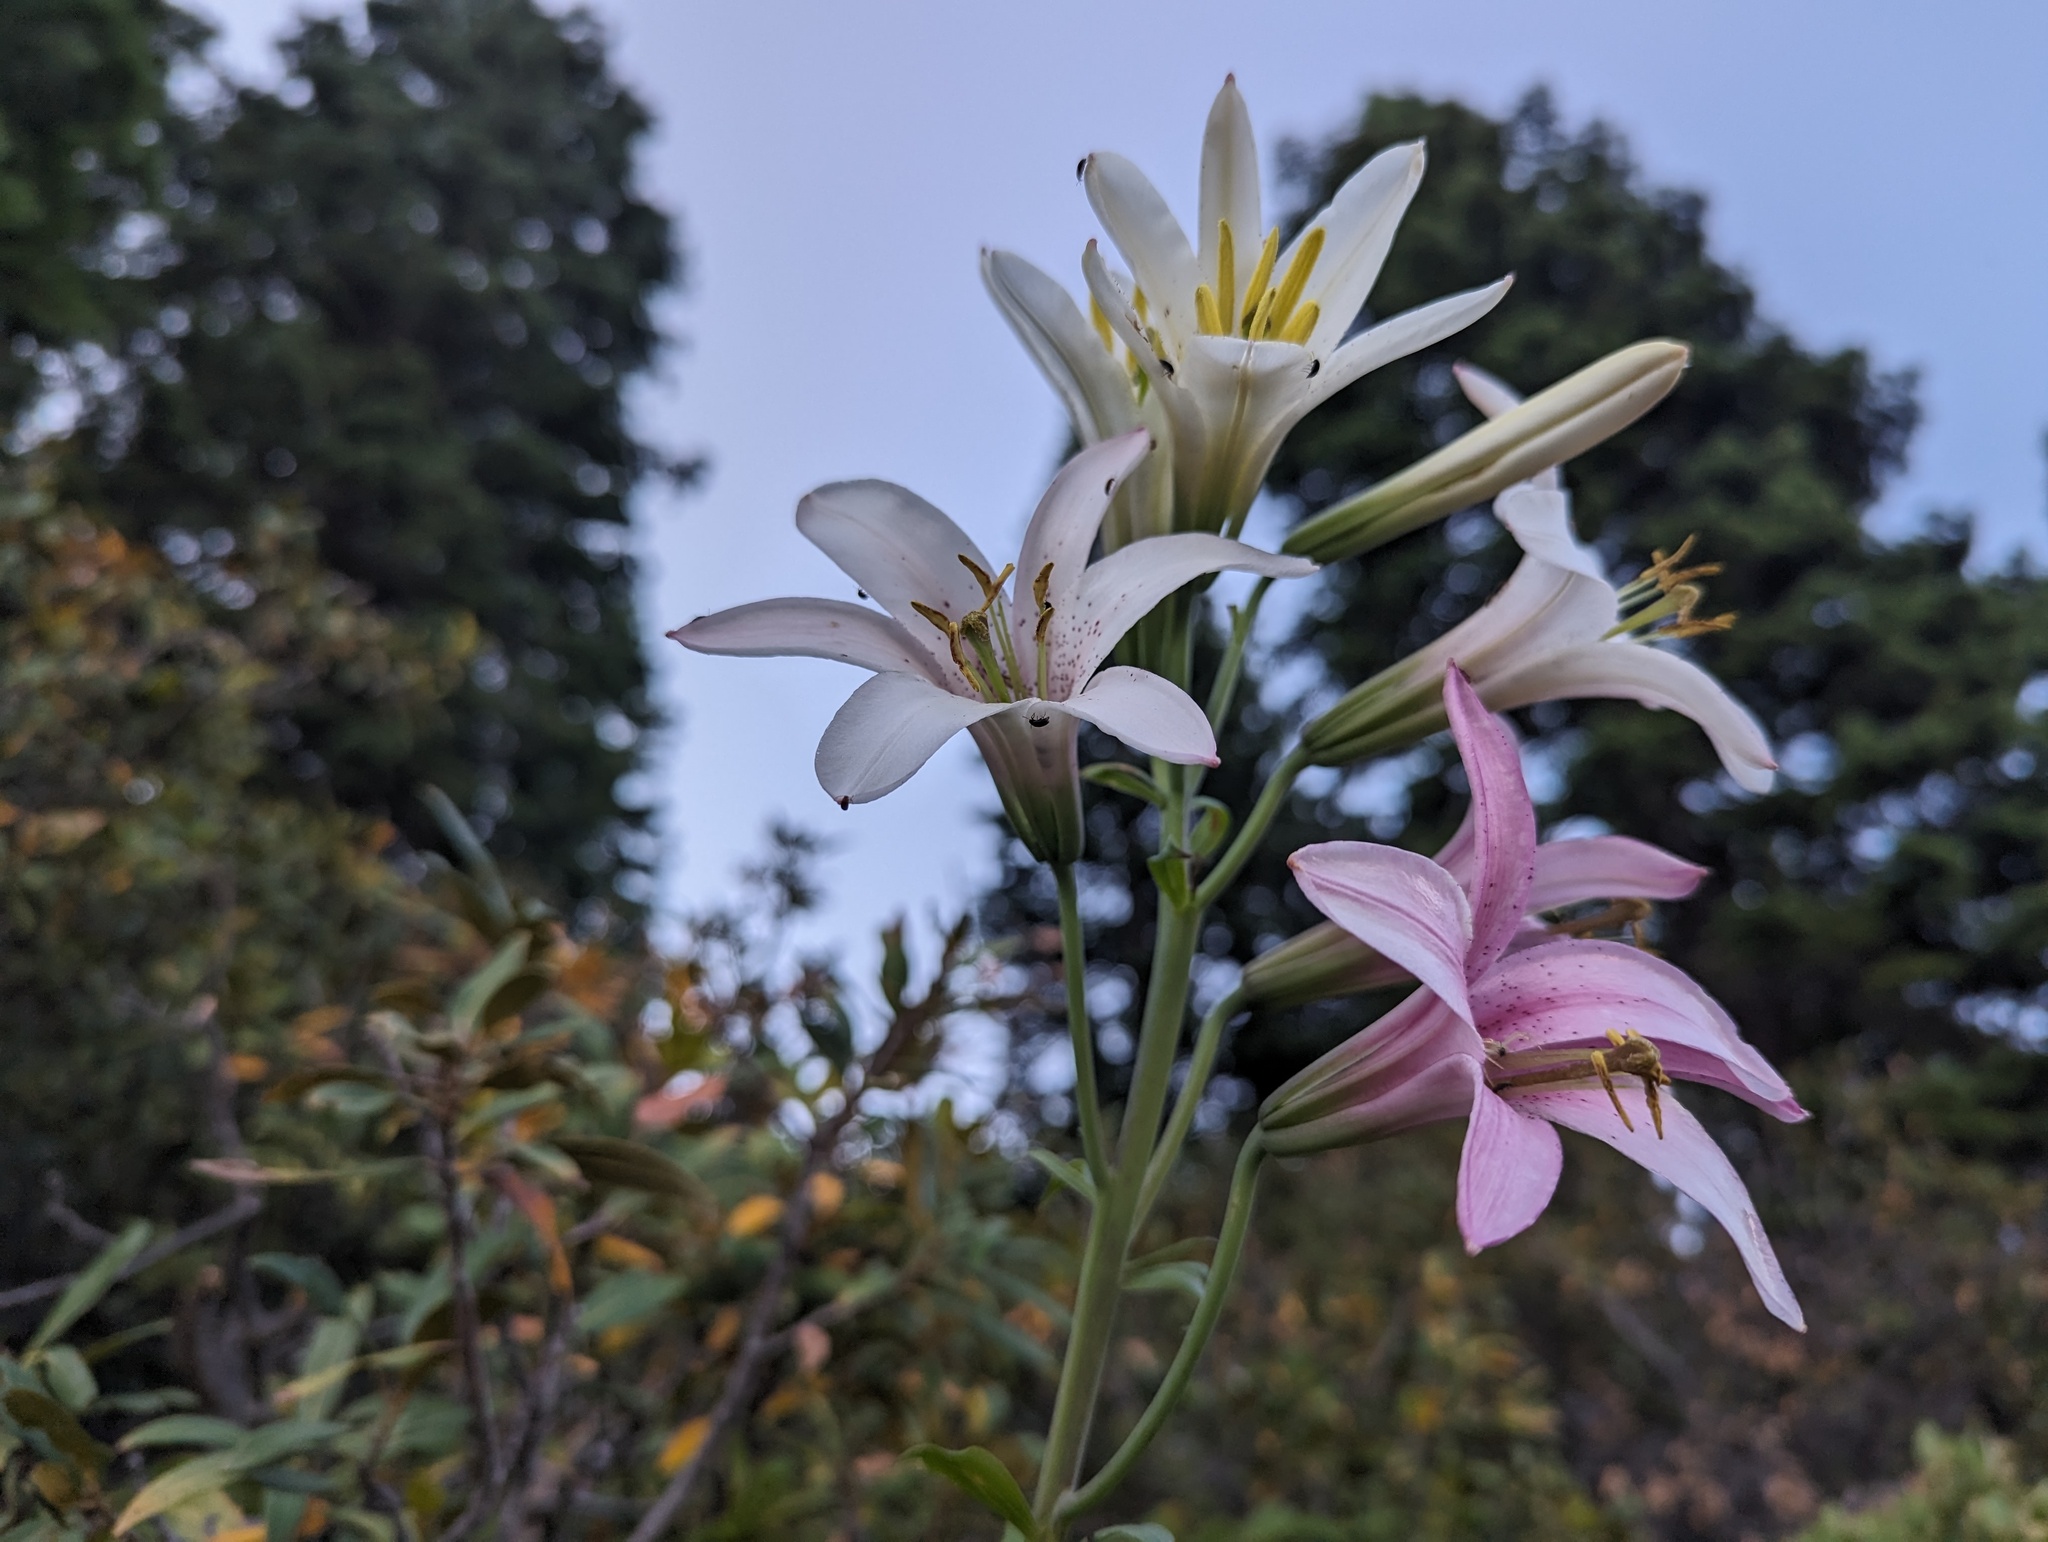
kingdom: Plantae
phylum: Tracheophyta
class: Liliopsida
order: Liliales
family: Liliaceae
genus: Lilium
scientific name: Lilium washingtonianum
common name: Washington lily
